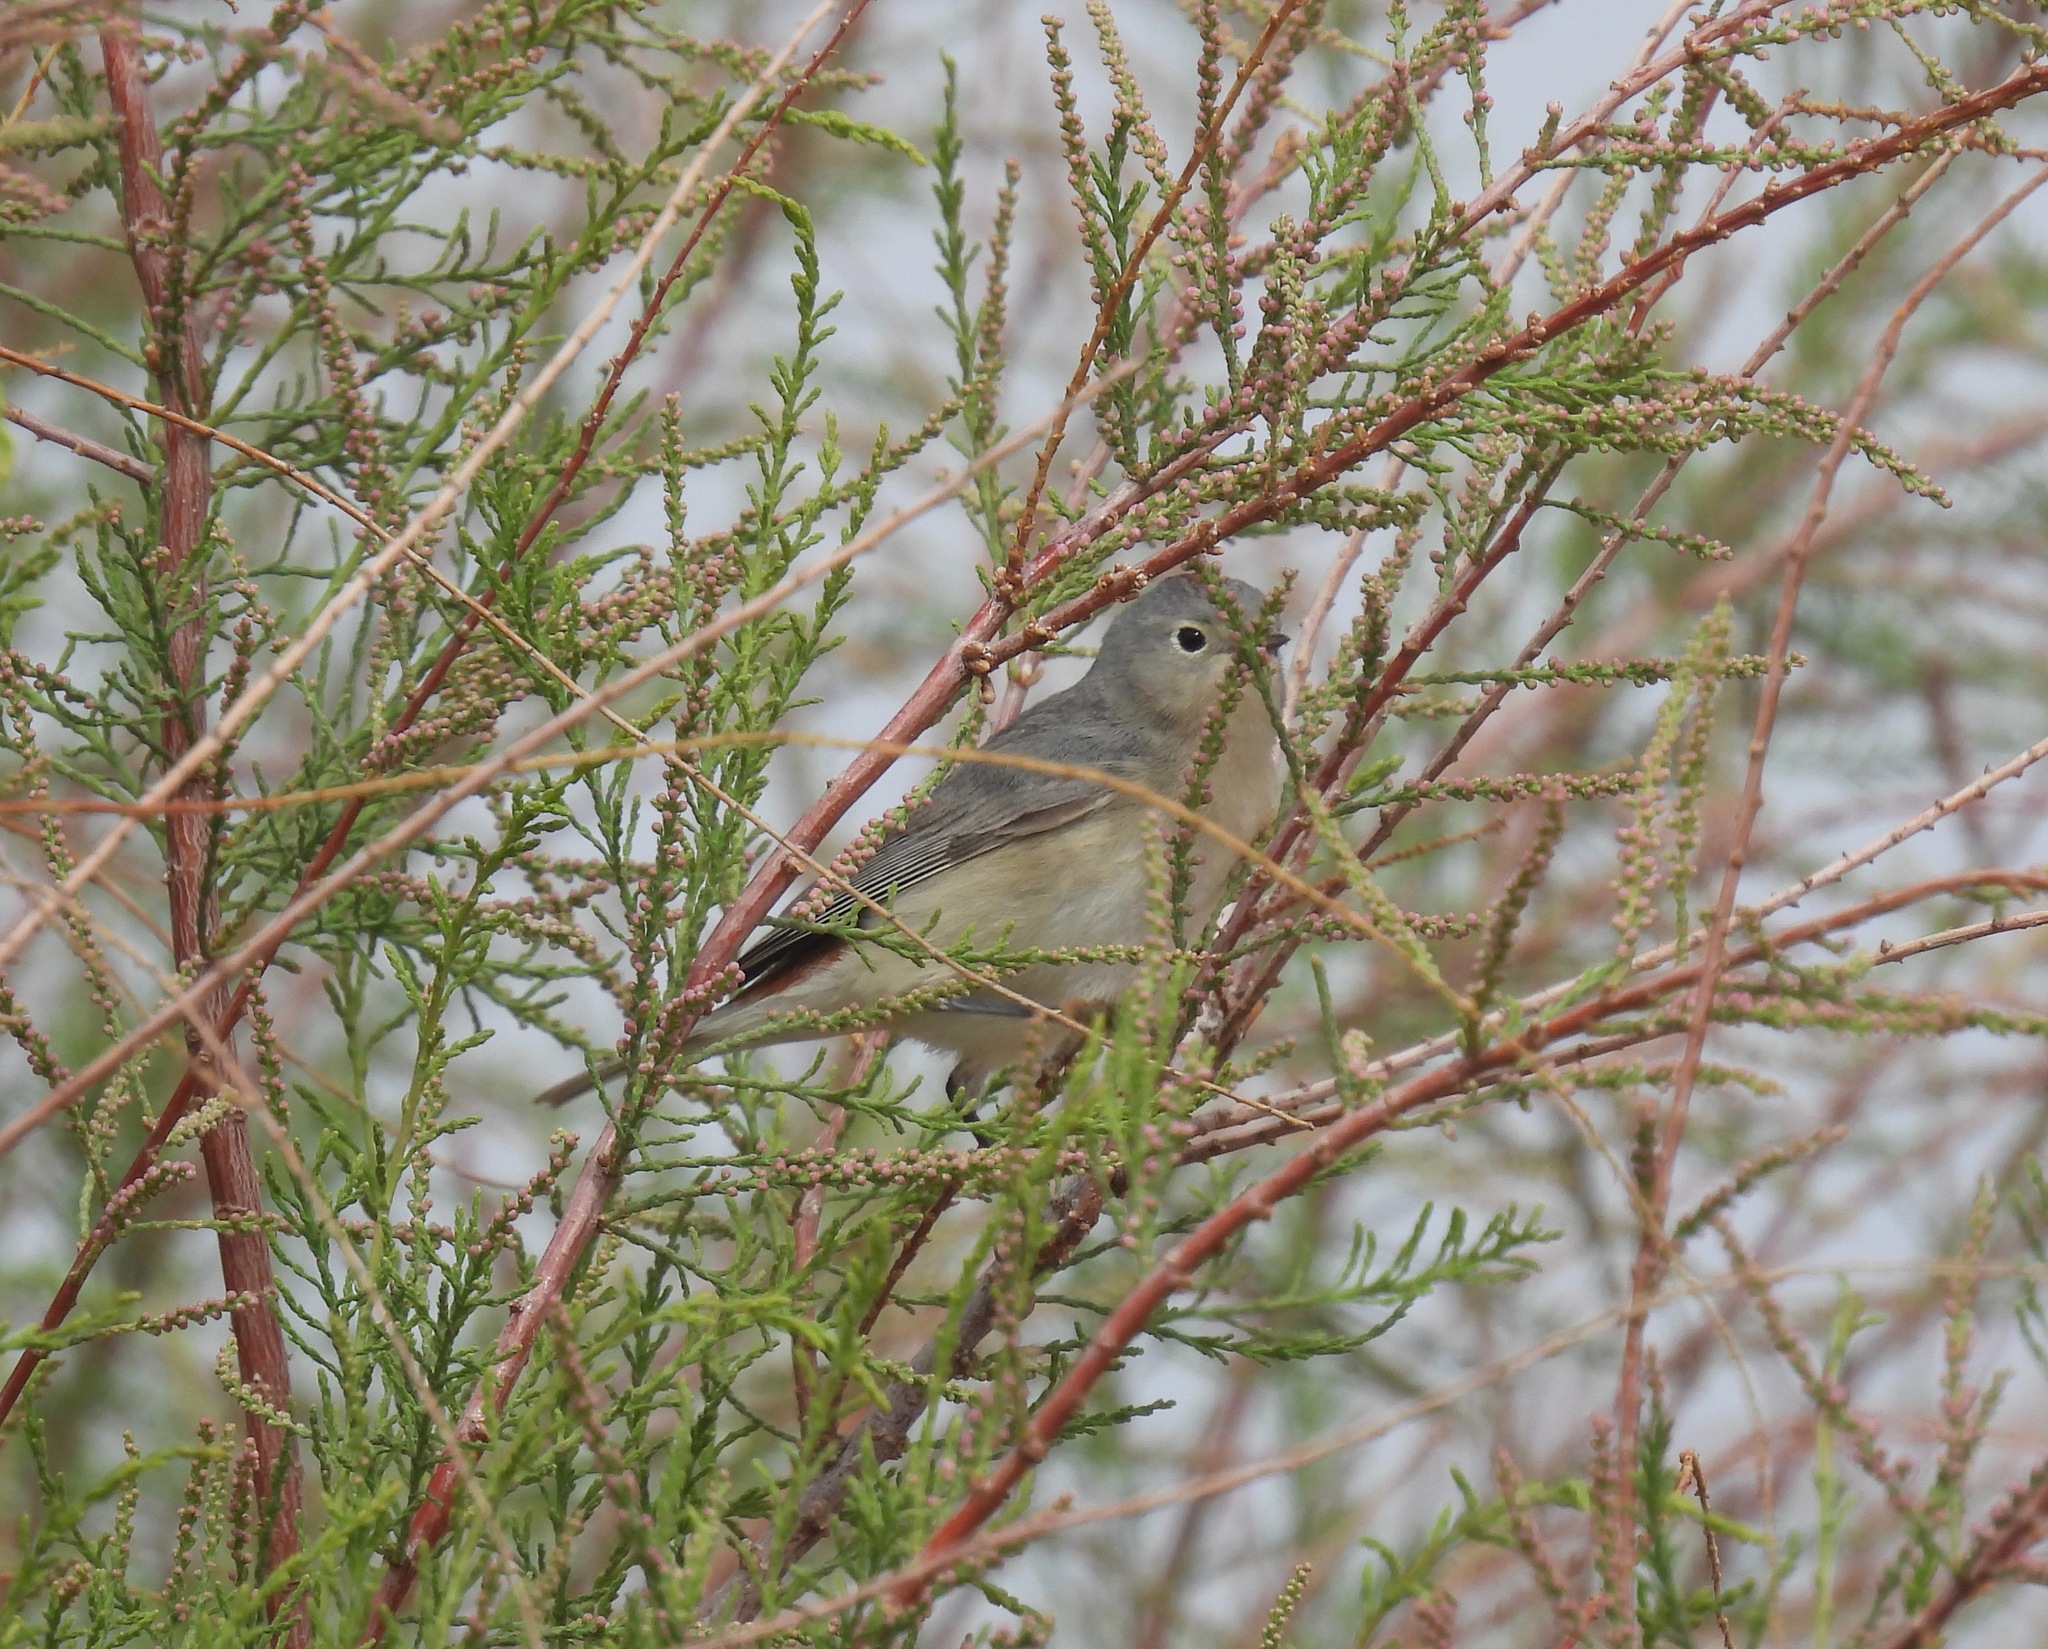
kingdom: Animalia
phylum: Chordata
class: Aves
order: Passeriformes
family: Parulidae
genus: Leiothlypis
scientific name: Leiothlypis luciae
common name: Lucy's warbler
